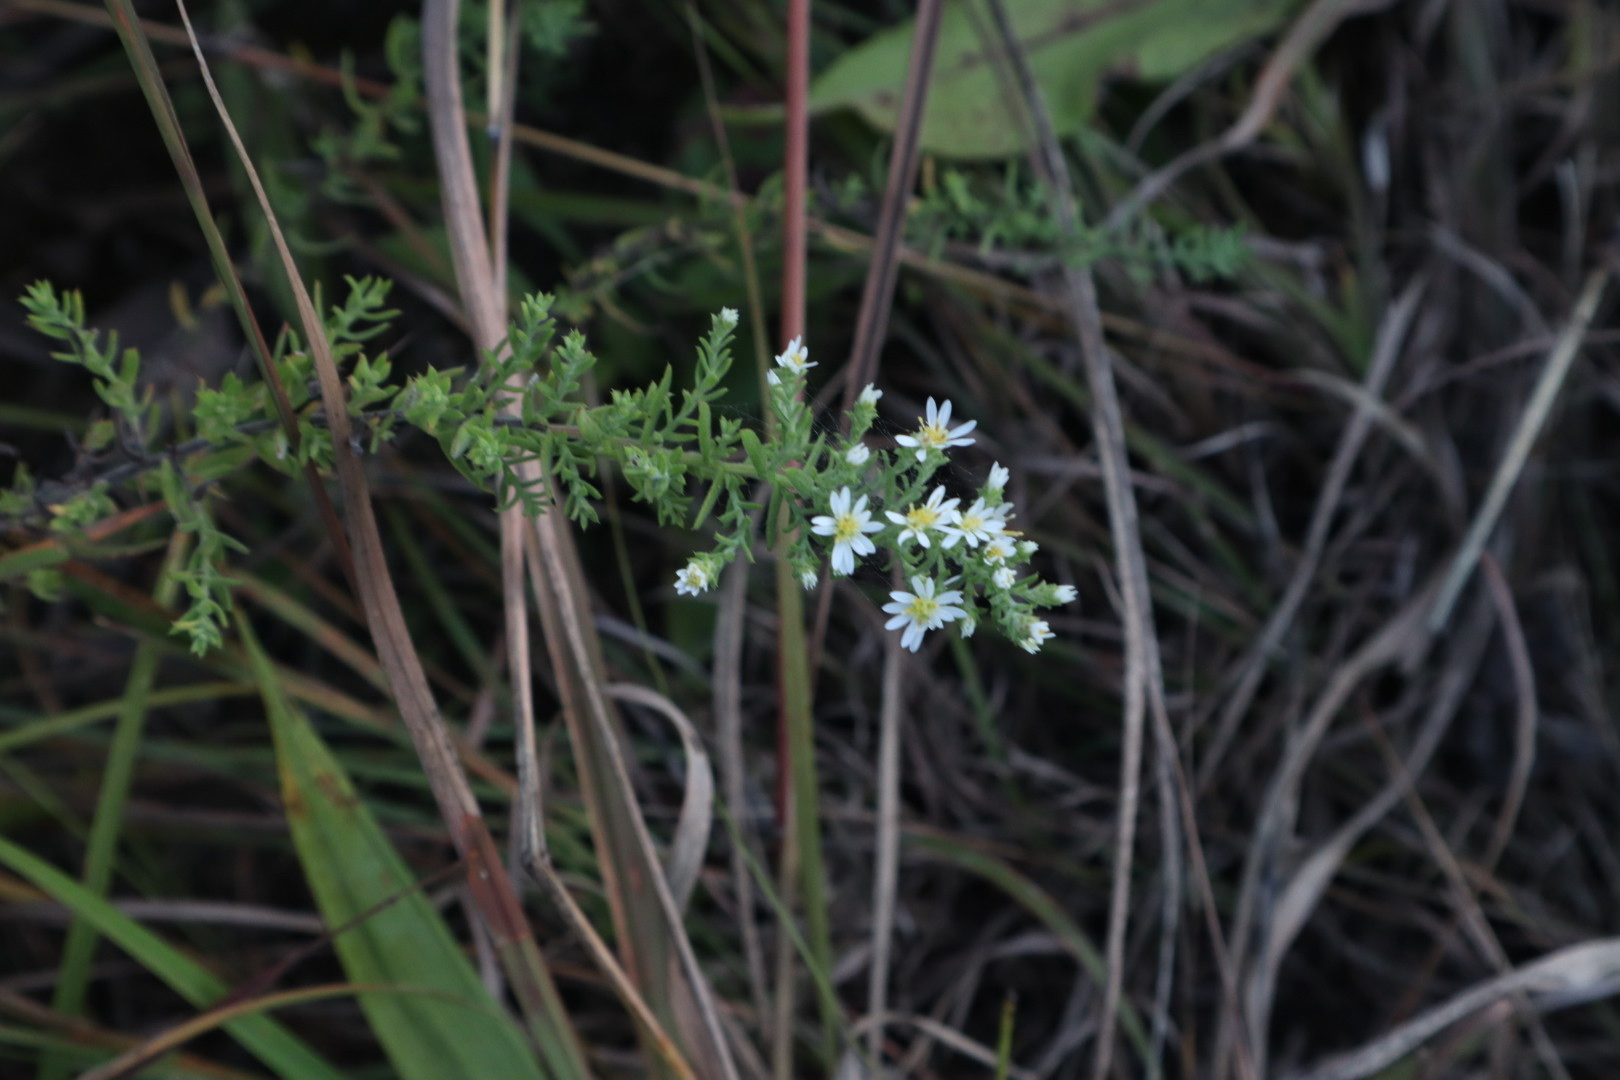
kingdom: Plantae
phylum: Tracheophyta
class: Magnoliopsida
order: Asterales
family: Asteraceae
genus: Symphyotrichum
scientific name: Symphyotrichum ericoides
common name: Heath aster
